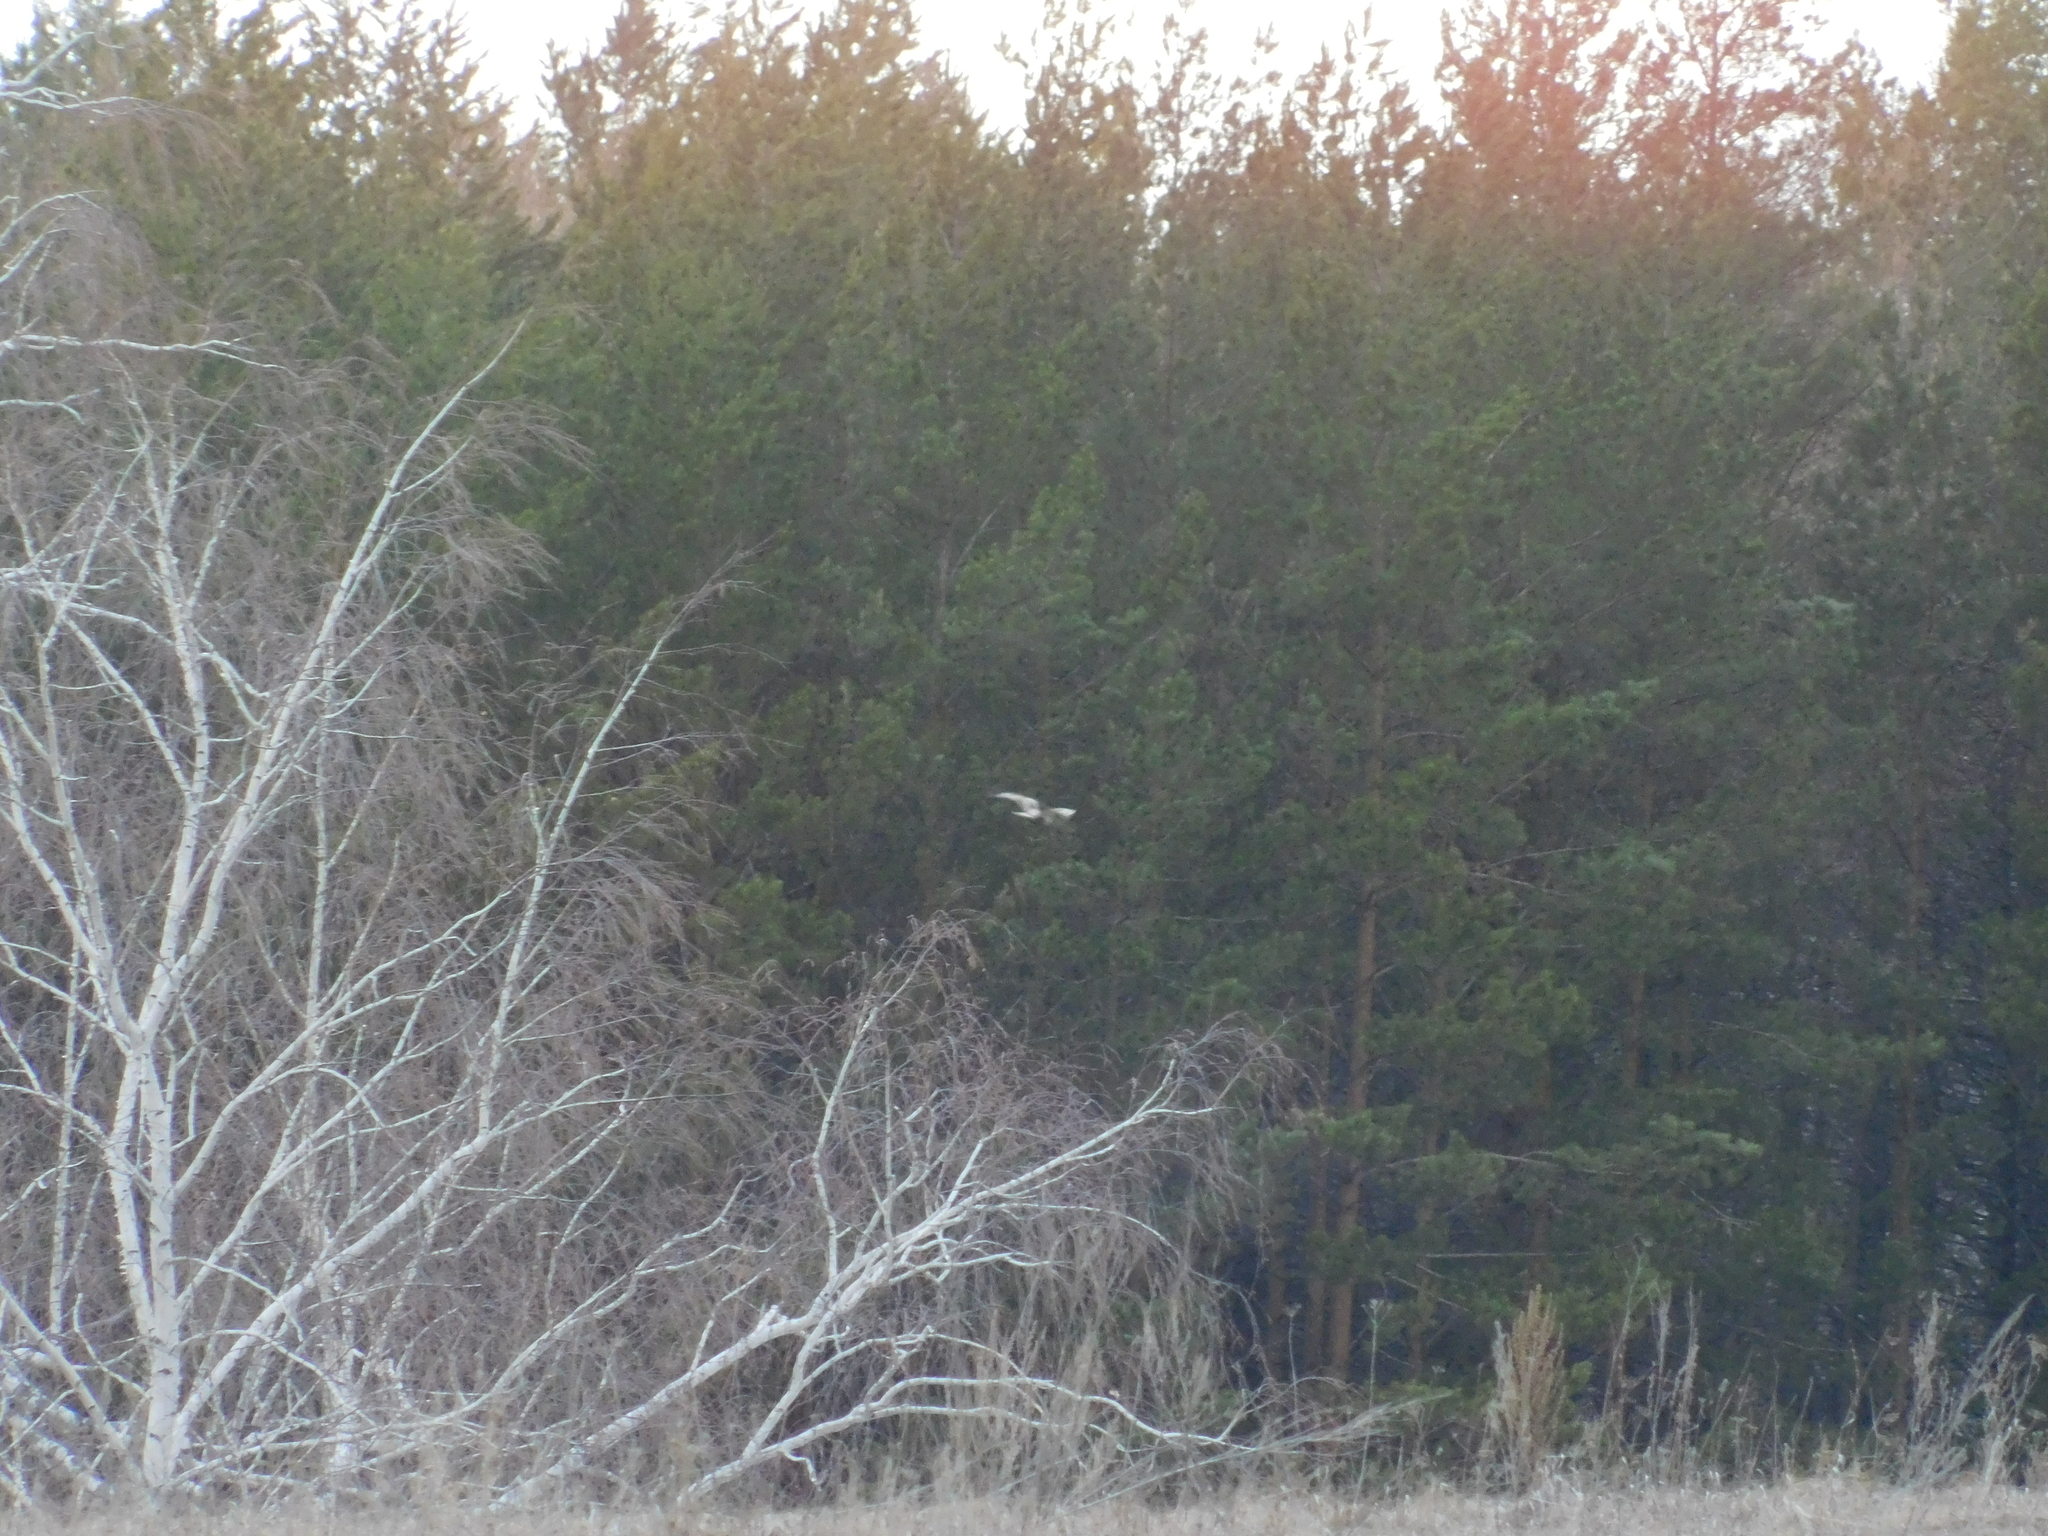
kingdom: Animalia
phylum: Chordata
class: Aves
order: Accipitriformes
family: Accipitridae
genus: Buteo
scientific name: Buteo buteo
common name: Common buzzard
